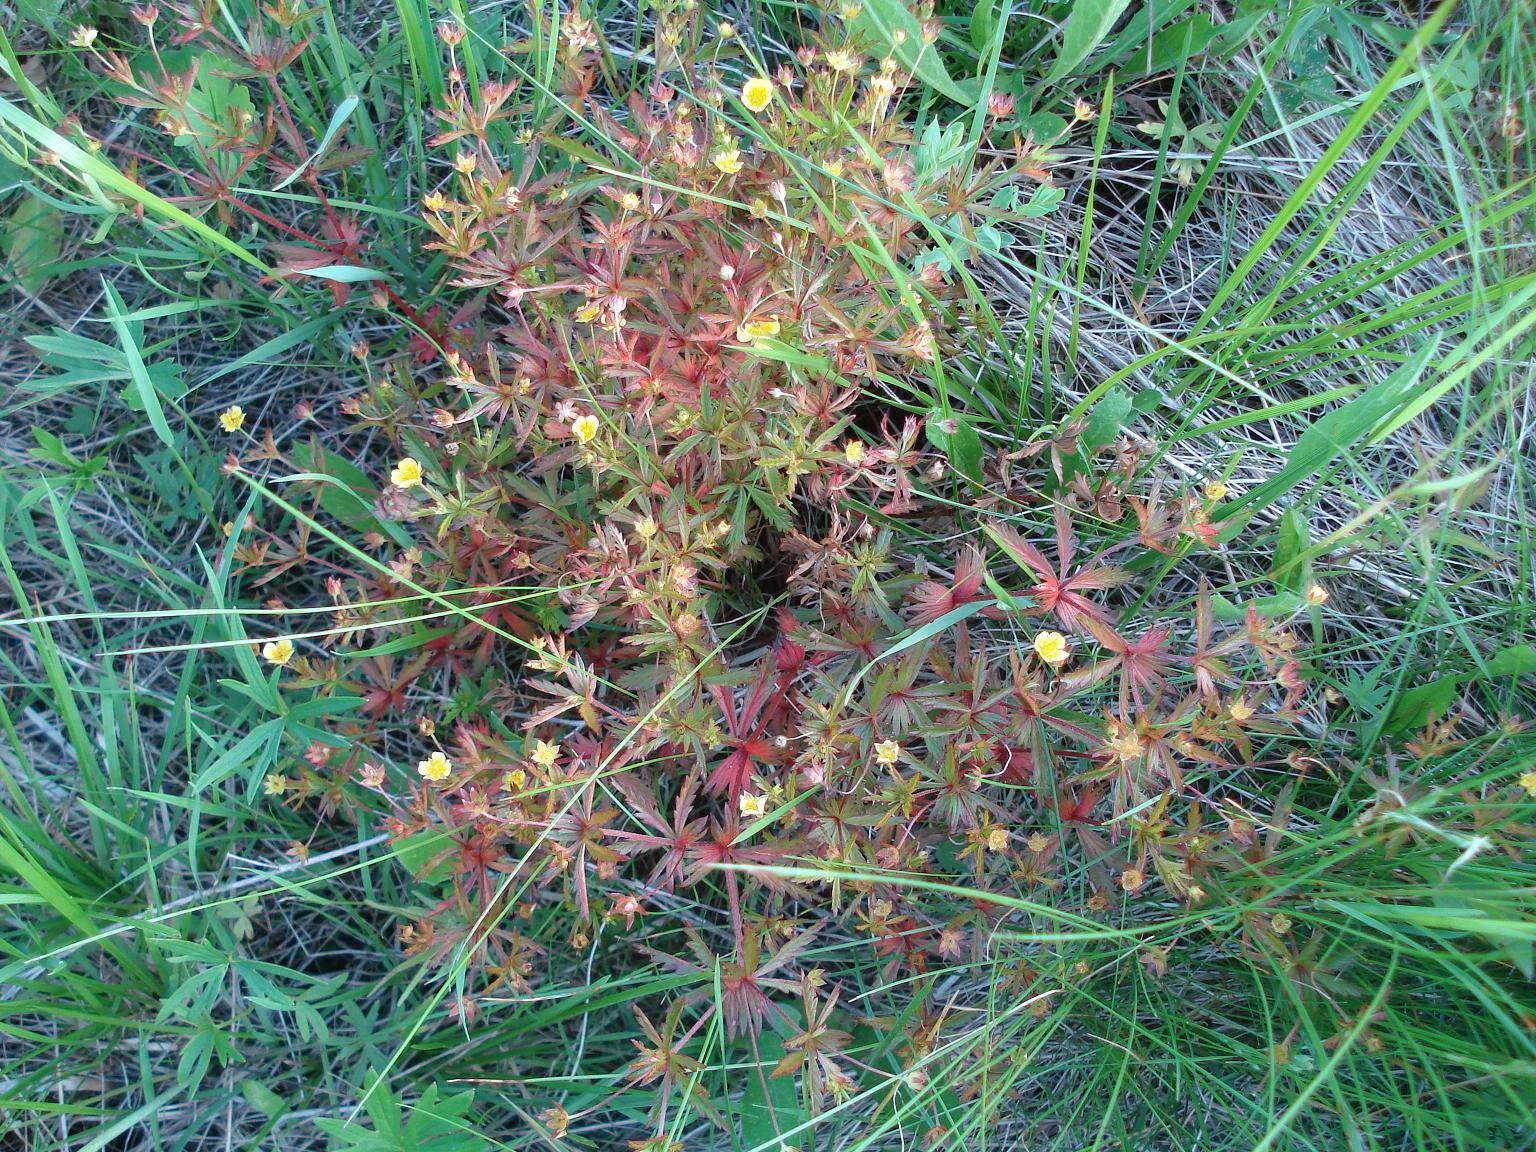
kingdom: Plantae
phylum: Tracheophyta
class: Magnoliopsida
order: Rosales
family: Rosaceae
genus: Potentilla
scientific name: Potentilla erecta
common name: Tormentil
